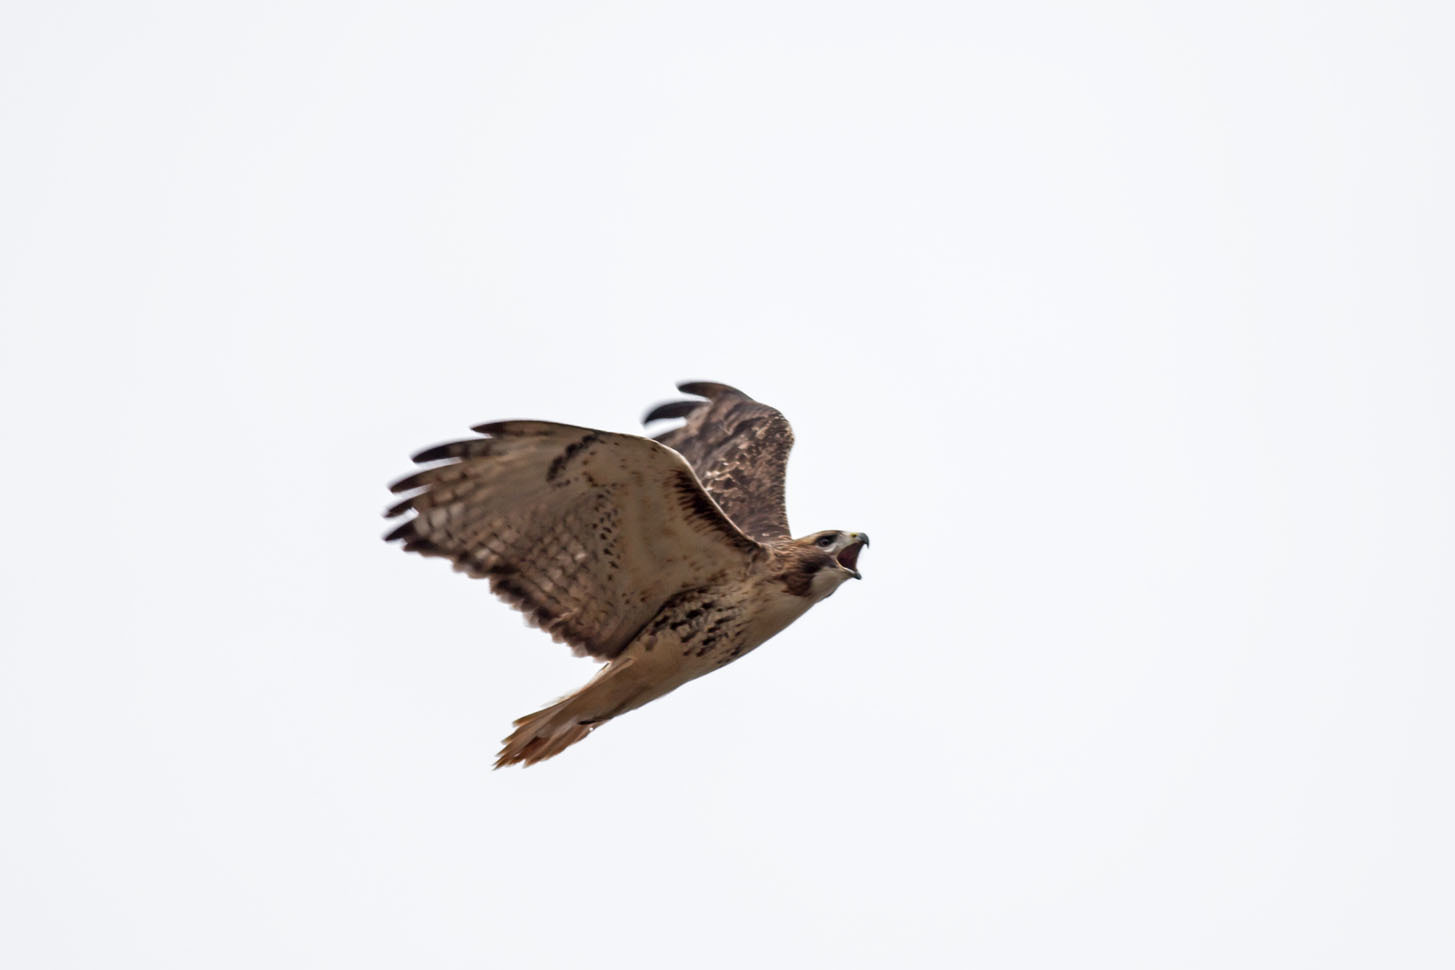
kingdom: Animalia
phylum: Chordata
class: Aves
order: Accipitriformes
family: Accipitridae
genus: Buteo
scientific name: Buteo jamaicensis
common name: Red-tailed hawk
